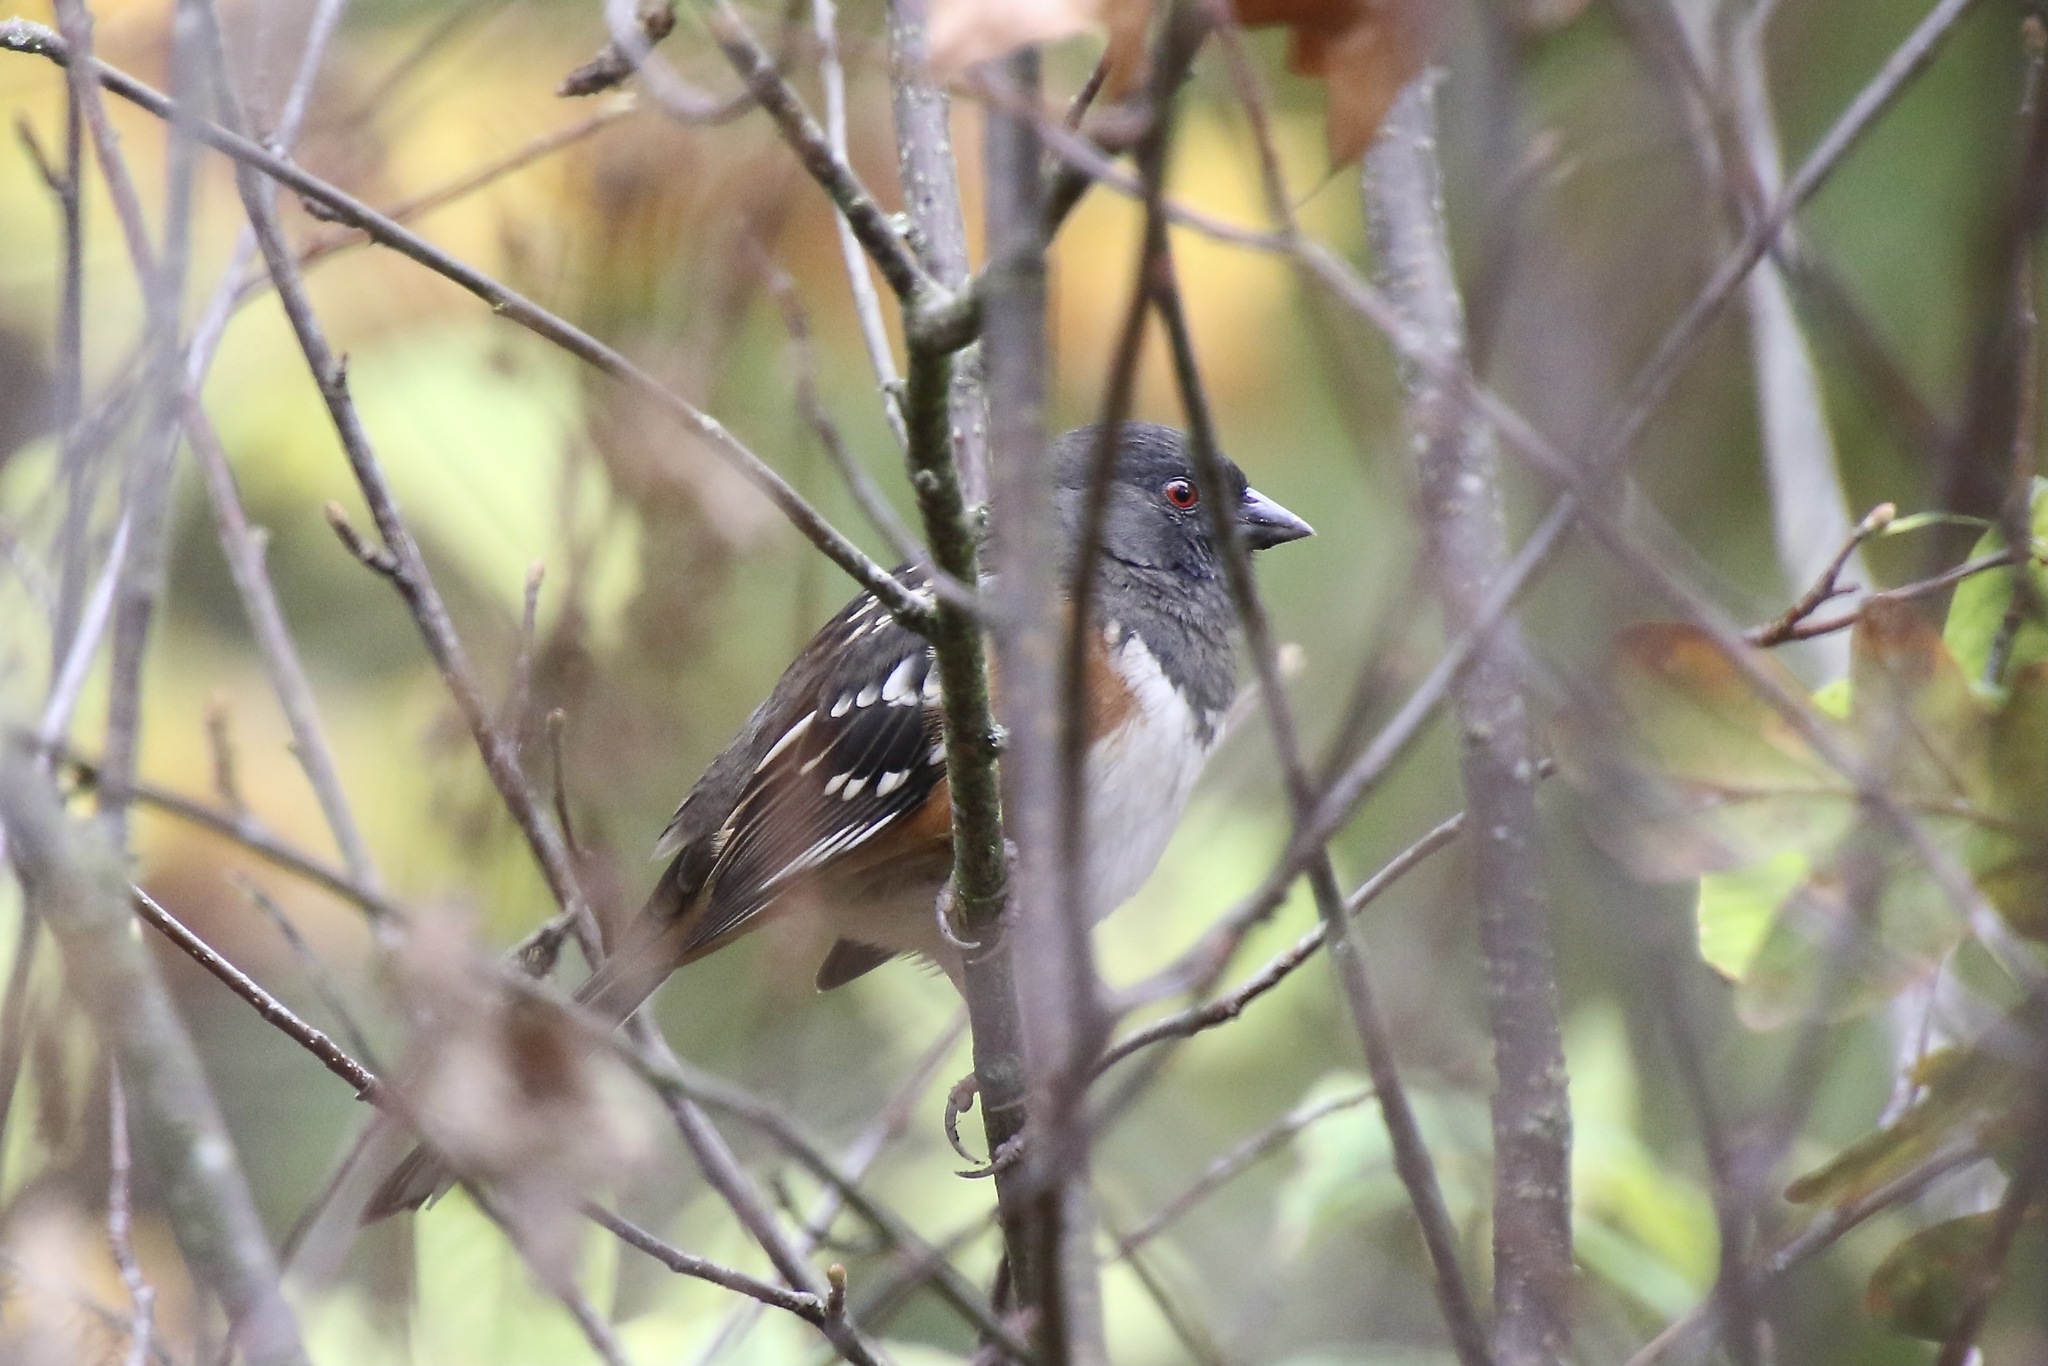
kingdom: Animalia
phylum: Chordata
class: Aves
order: Passeriformes
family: Passerellidae
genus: Pipilo
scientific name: Pipilo maculatus
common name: Spotted towhee
